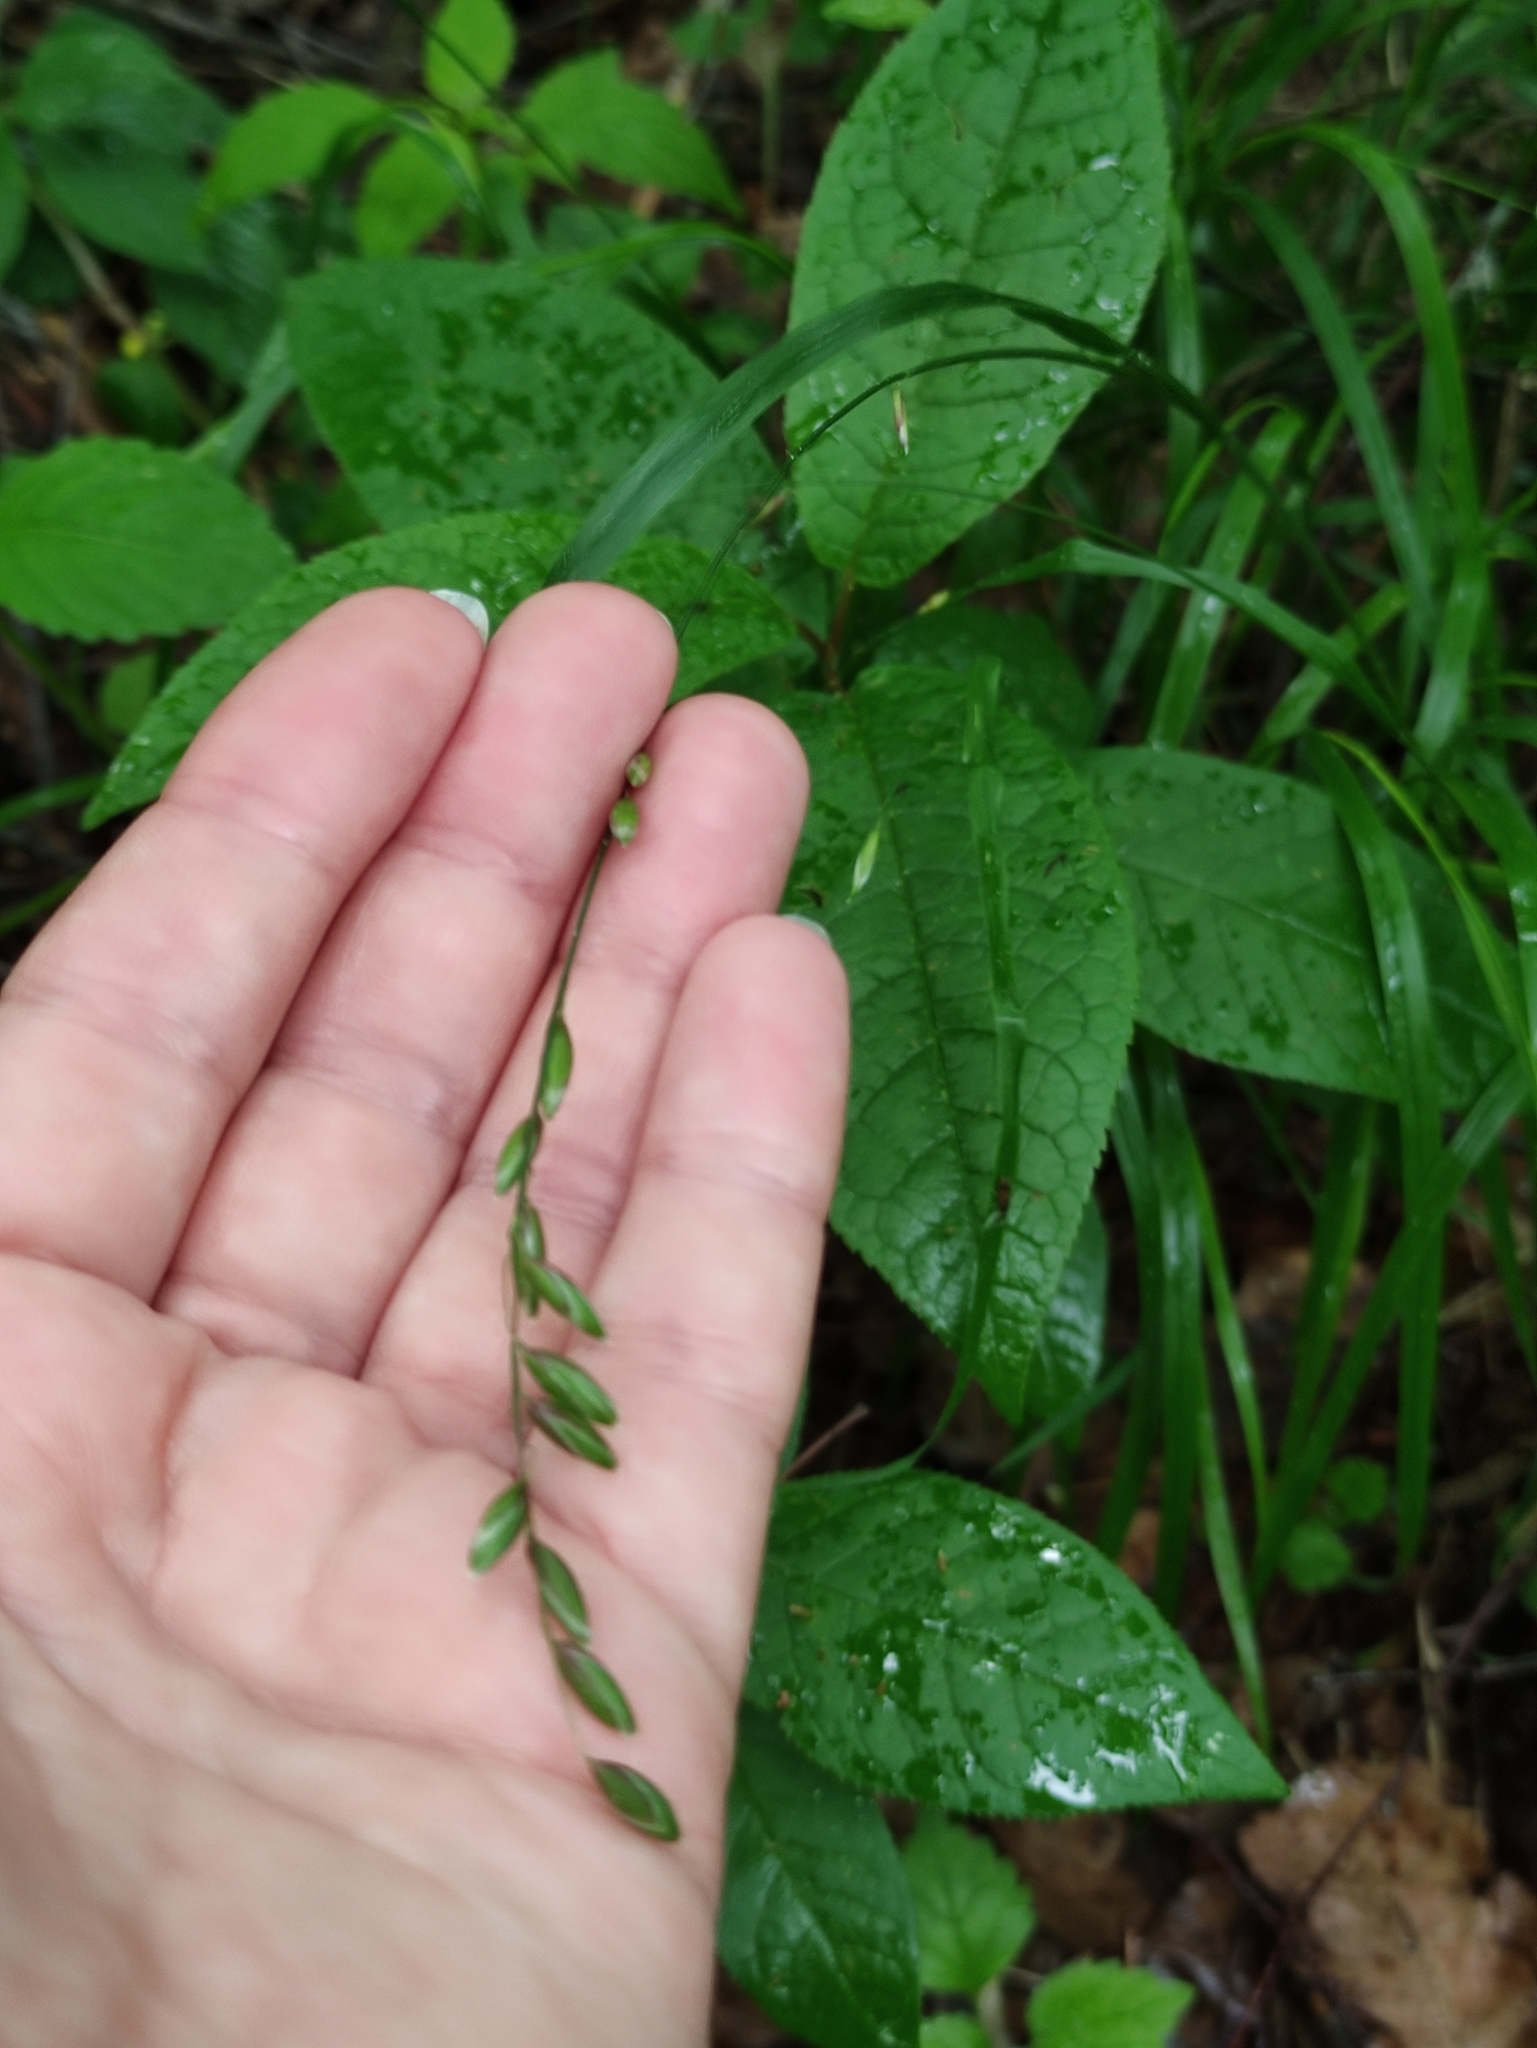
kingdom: Plantae
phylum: Tracheophyta
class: Liliopsida
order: Poales
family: Poaceae
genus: Melica
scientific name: Melica nutans
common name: Mountain melick
